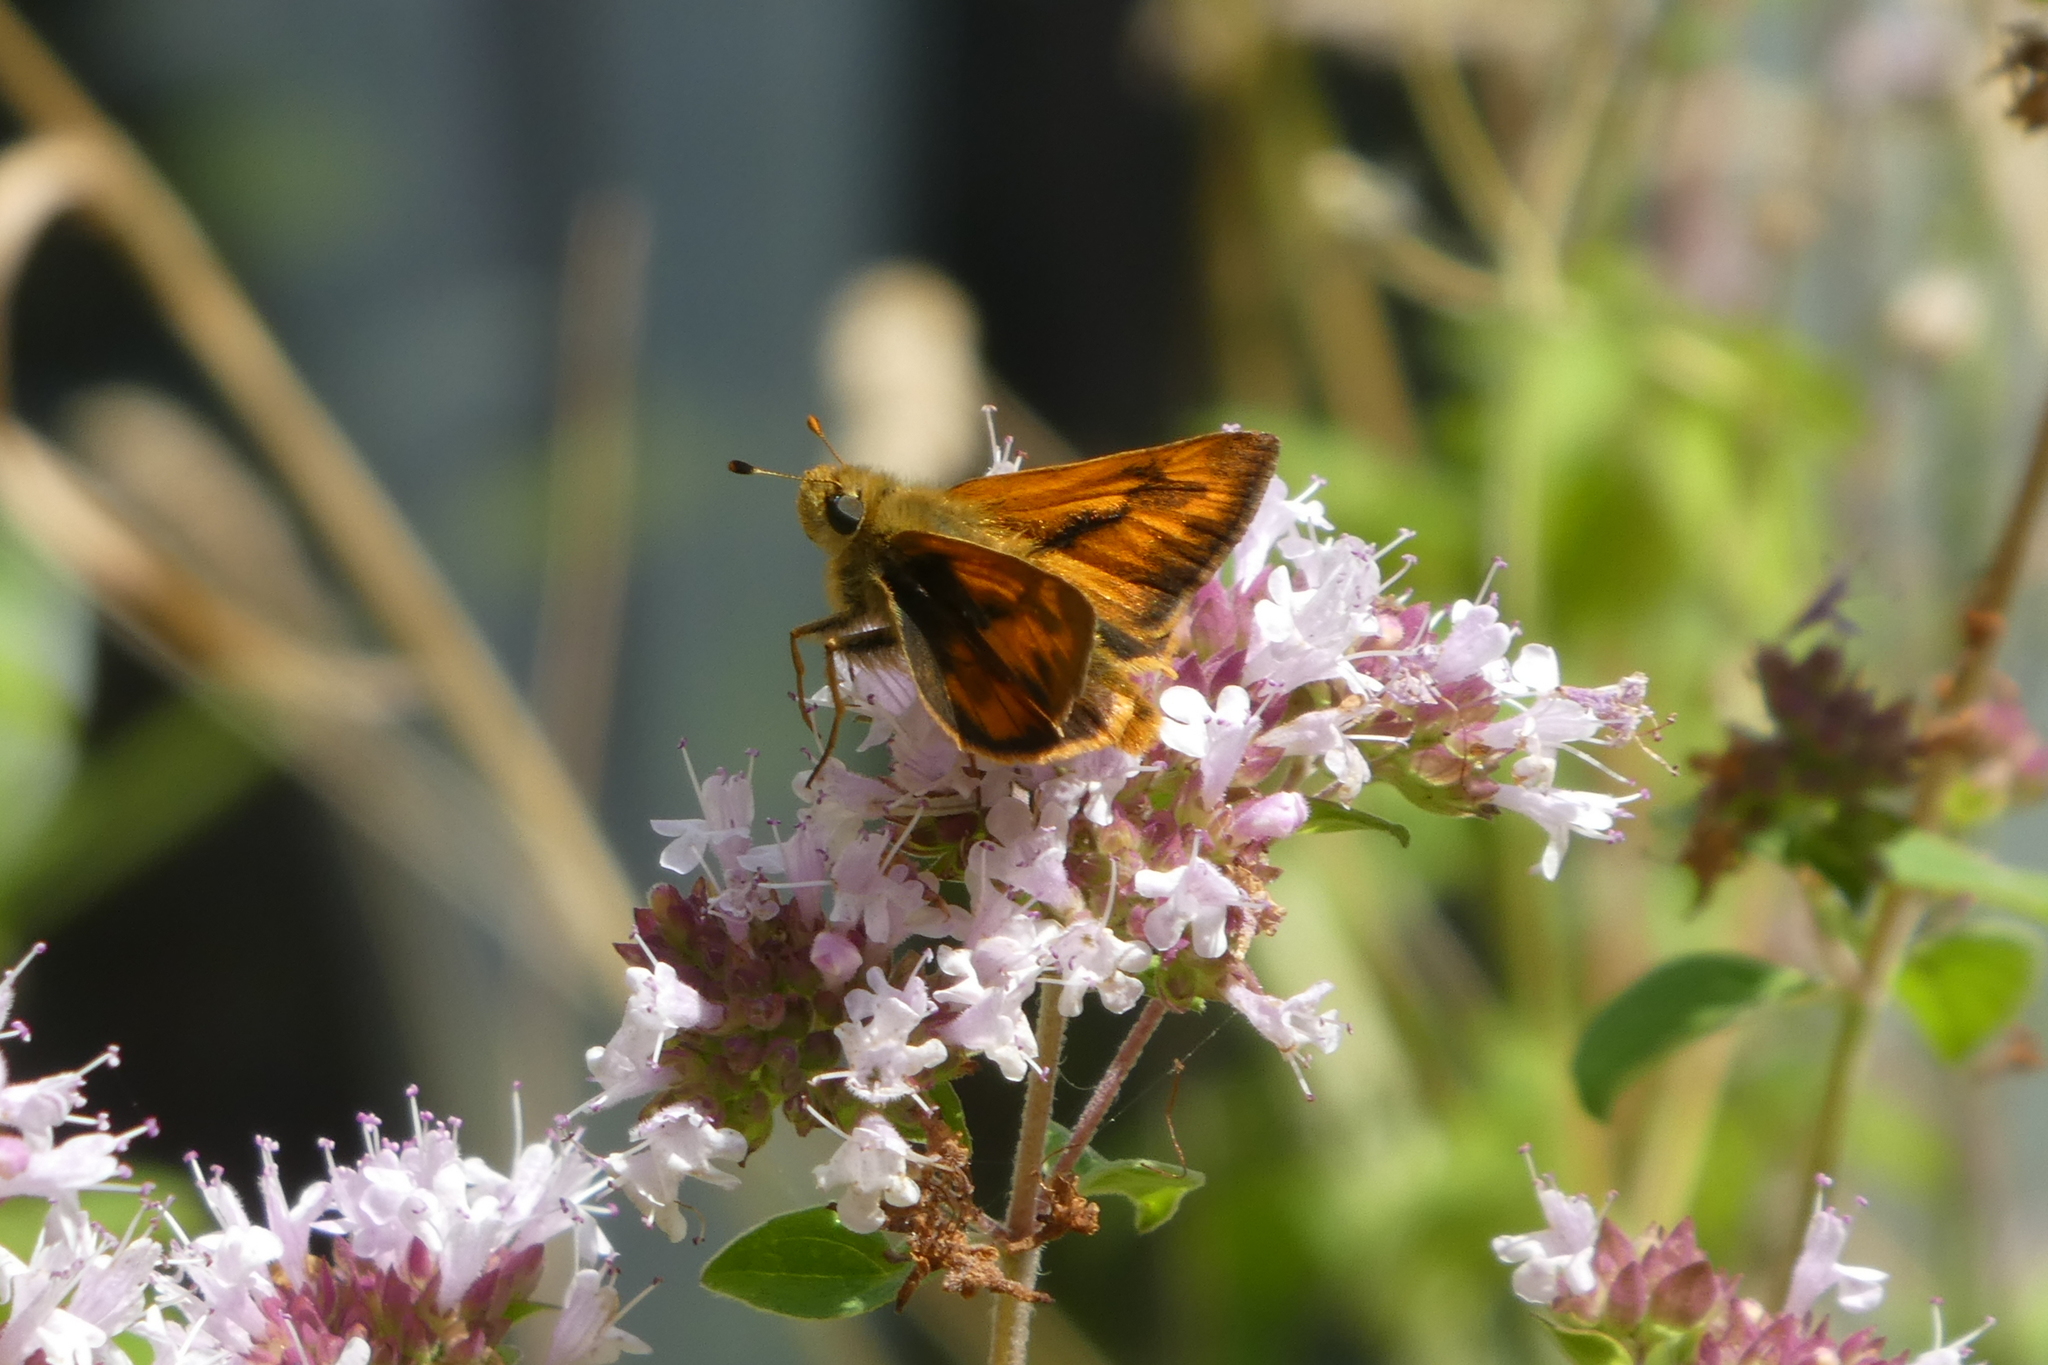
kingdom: Animalia
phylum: Arthropoda
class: Insecta
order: Lepidoptera
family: Hesperiidae
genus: Ochlodes
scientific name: Ochlodes sylvanoides
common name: Woodland skipper
